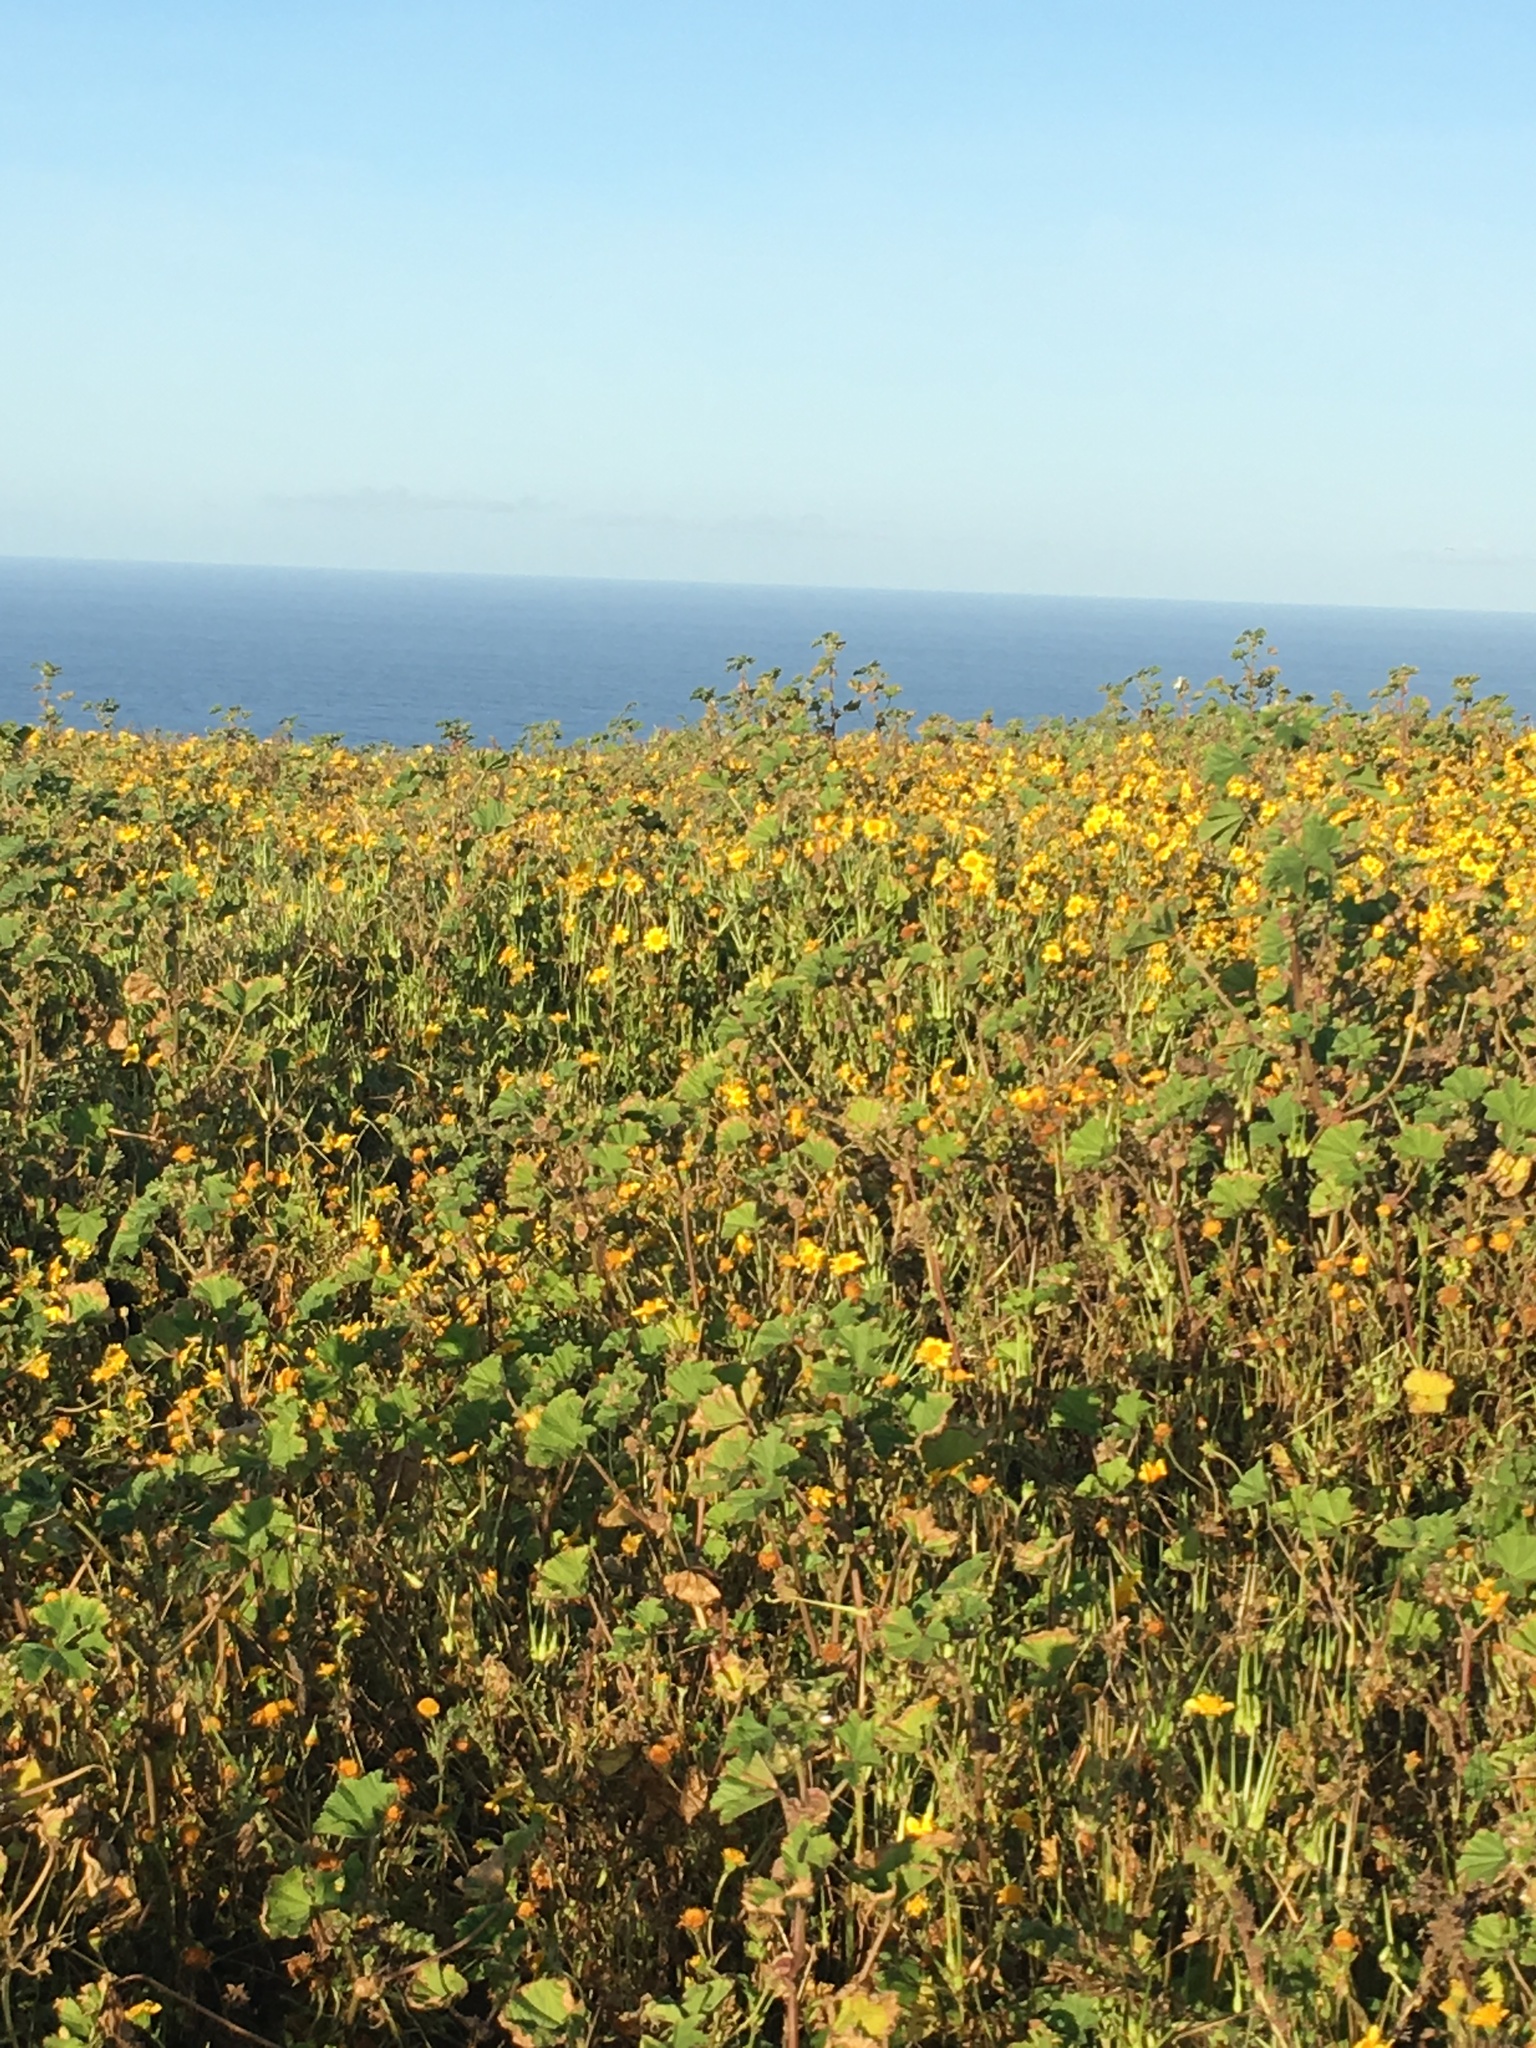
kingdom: Plantae
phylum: Tracheophyta
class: Magnoliopsida
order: Asterales
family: Asteraceae
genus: Lasthenia
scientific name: Lasthenia gracilis
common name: Common goldfields
